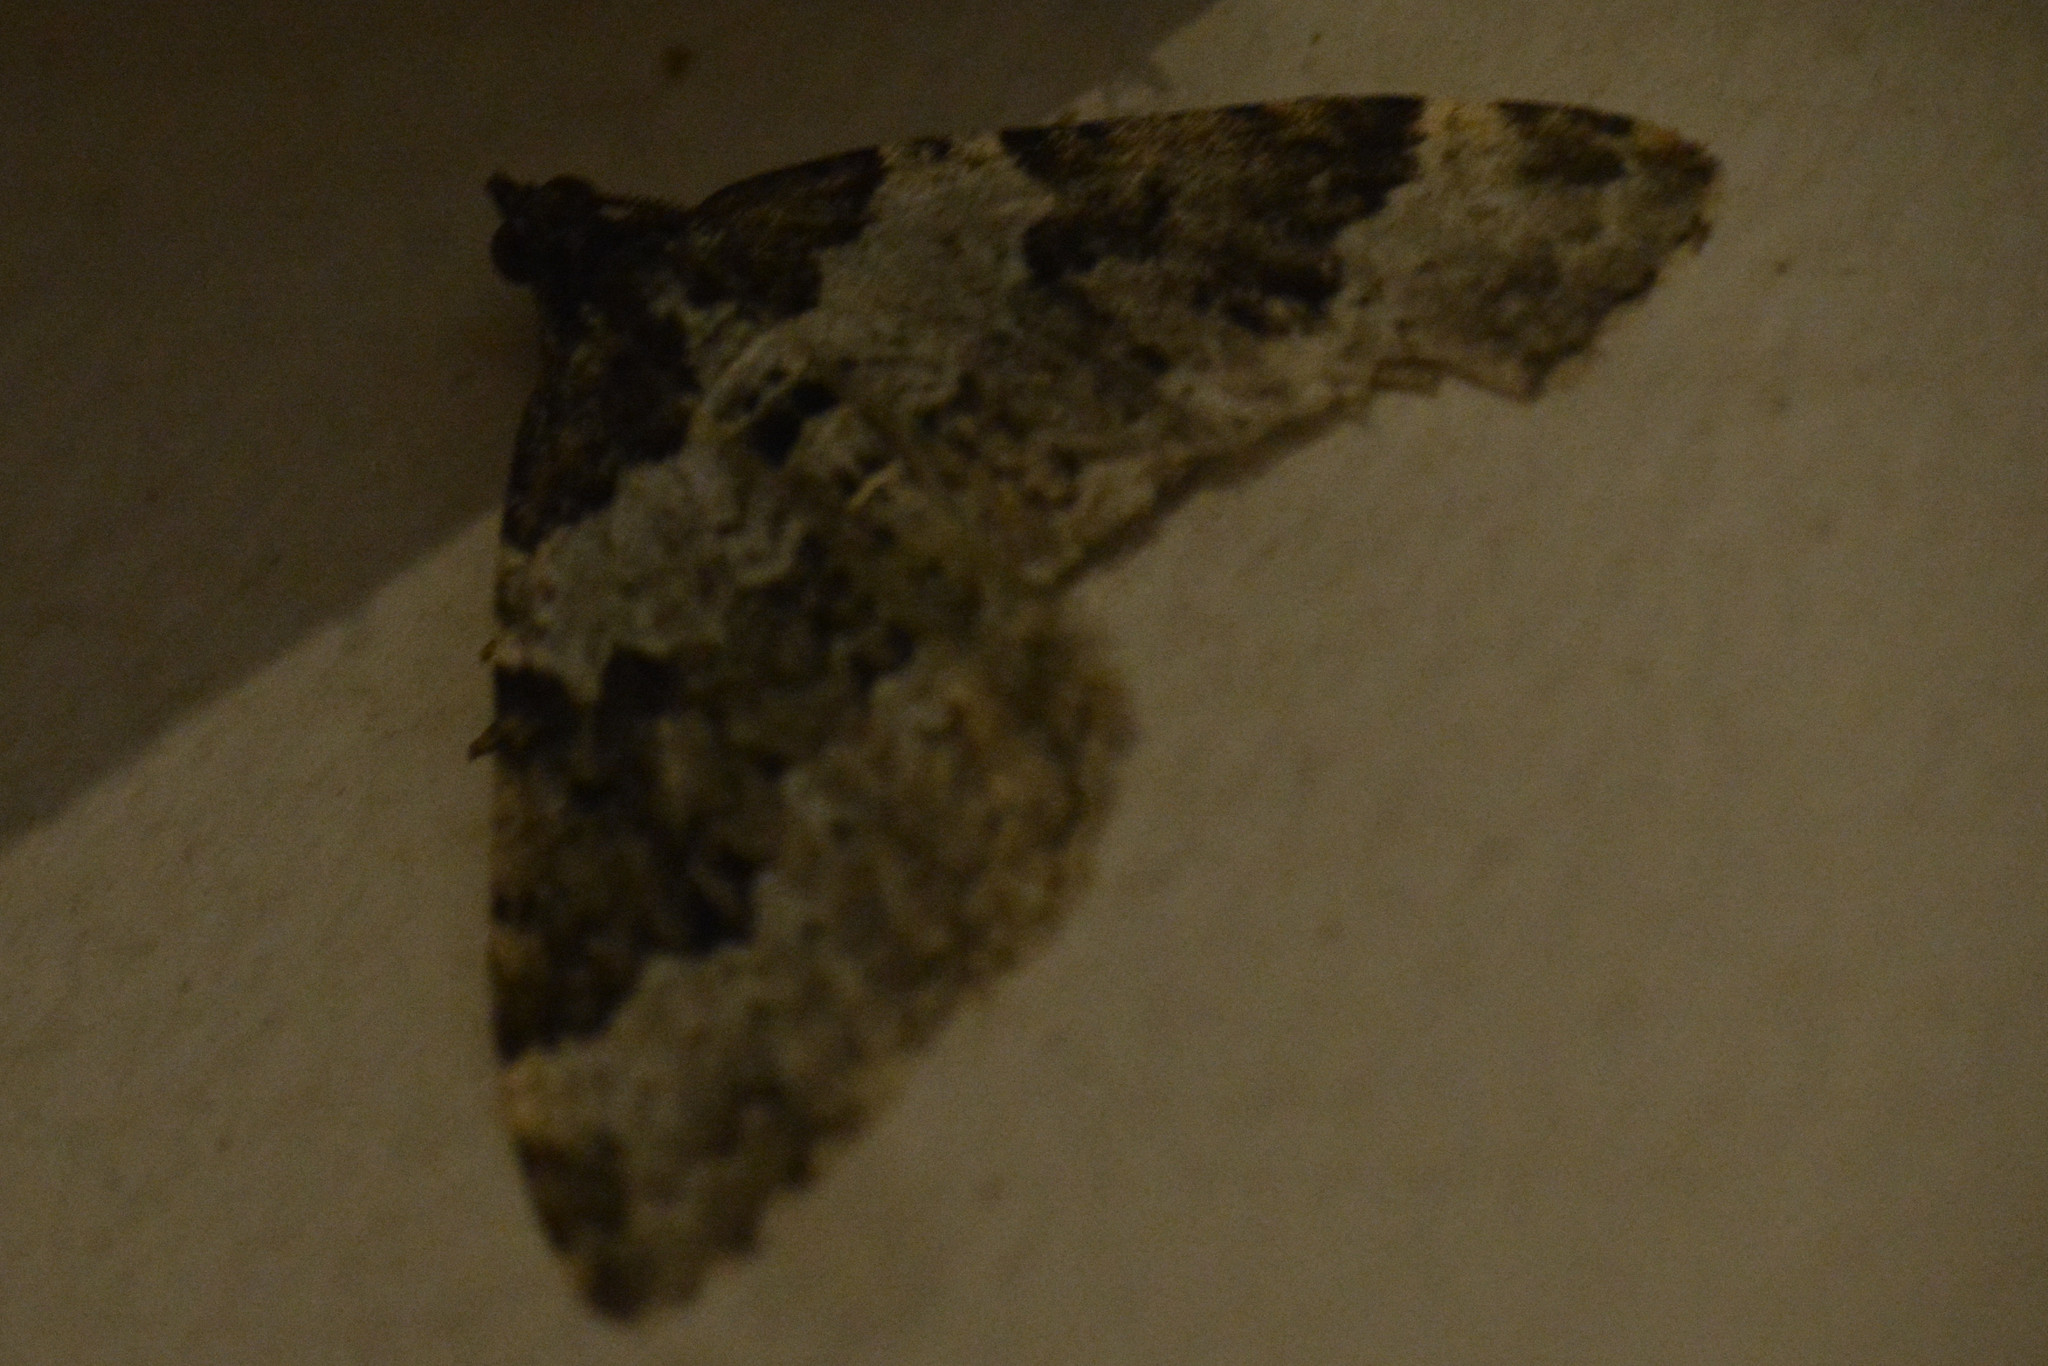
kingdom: Animalia
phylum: Arthropoda
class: Insecta
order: Lepidoptera
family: Geometridae
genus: Xanthorhoe
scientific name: Xanthorhoe fluctuata
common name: Garden carpet
